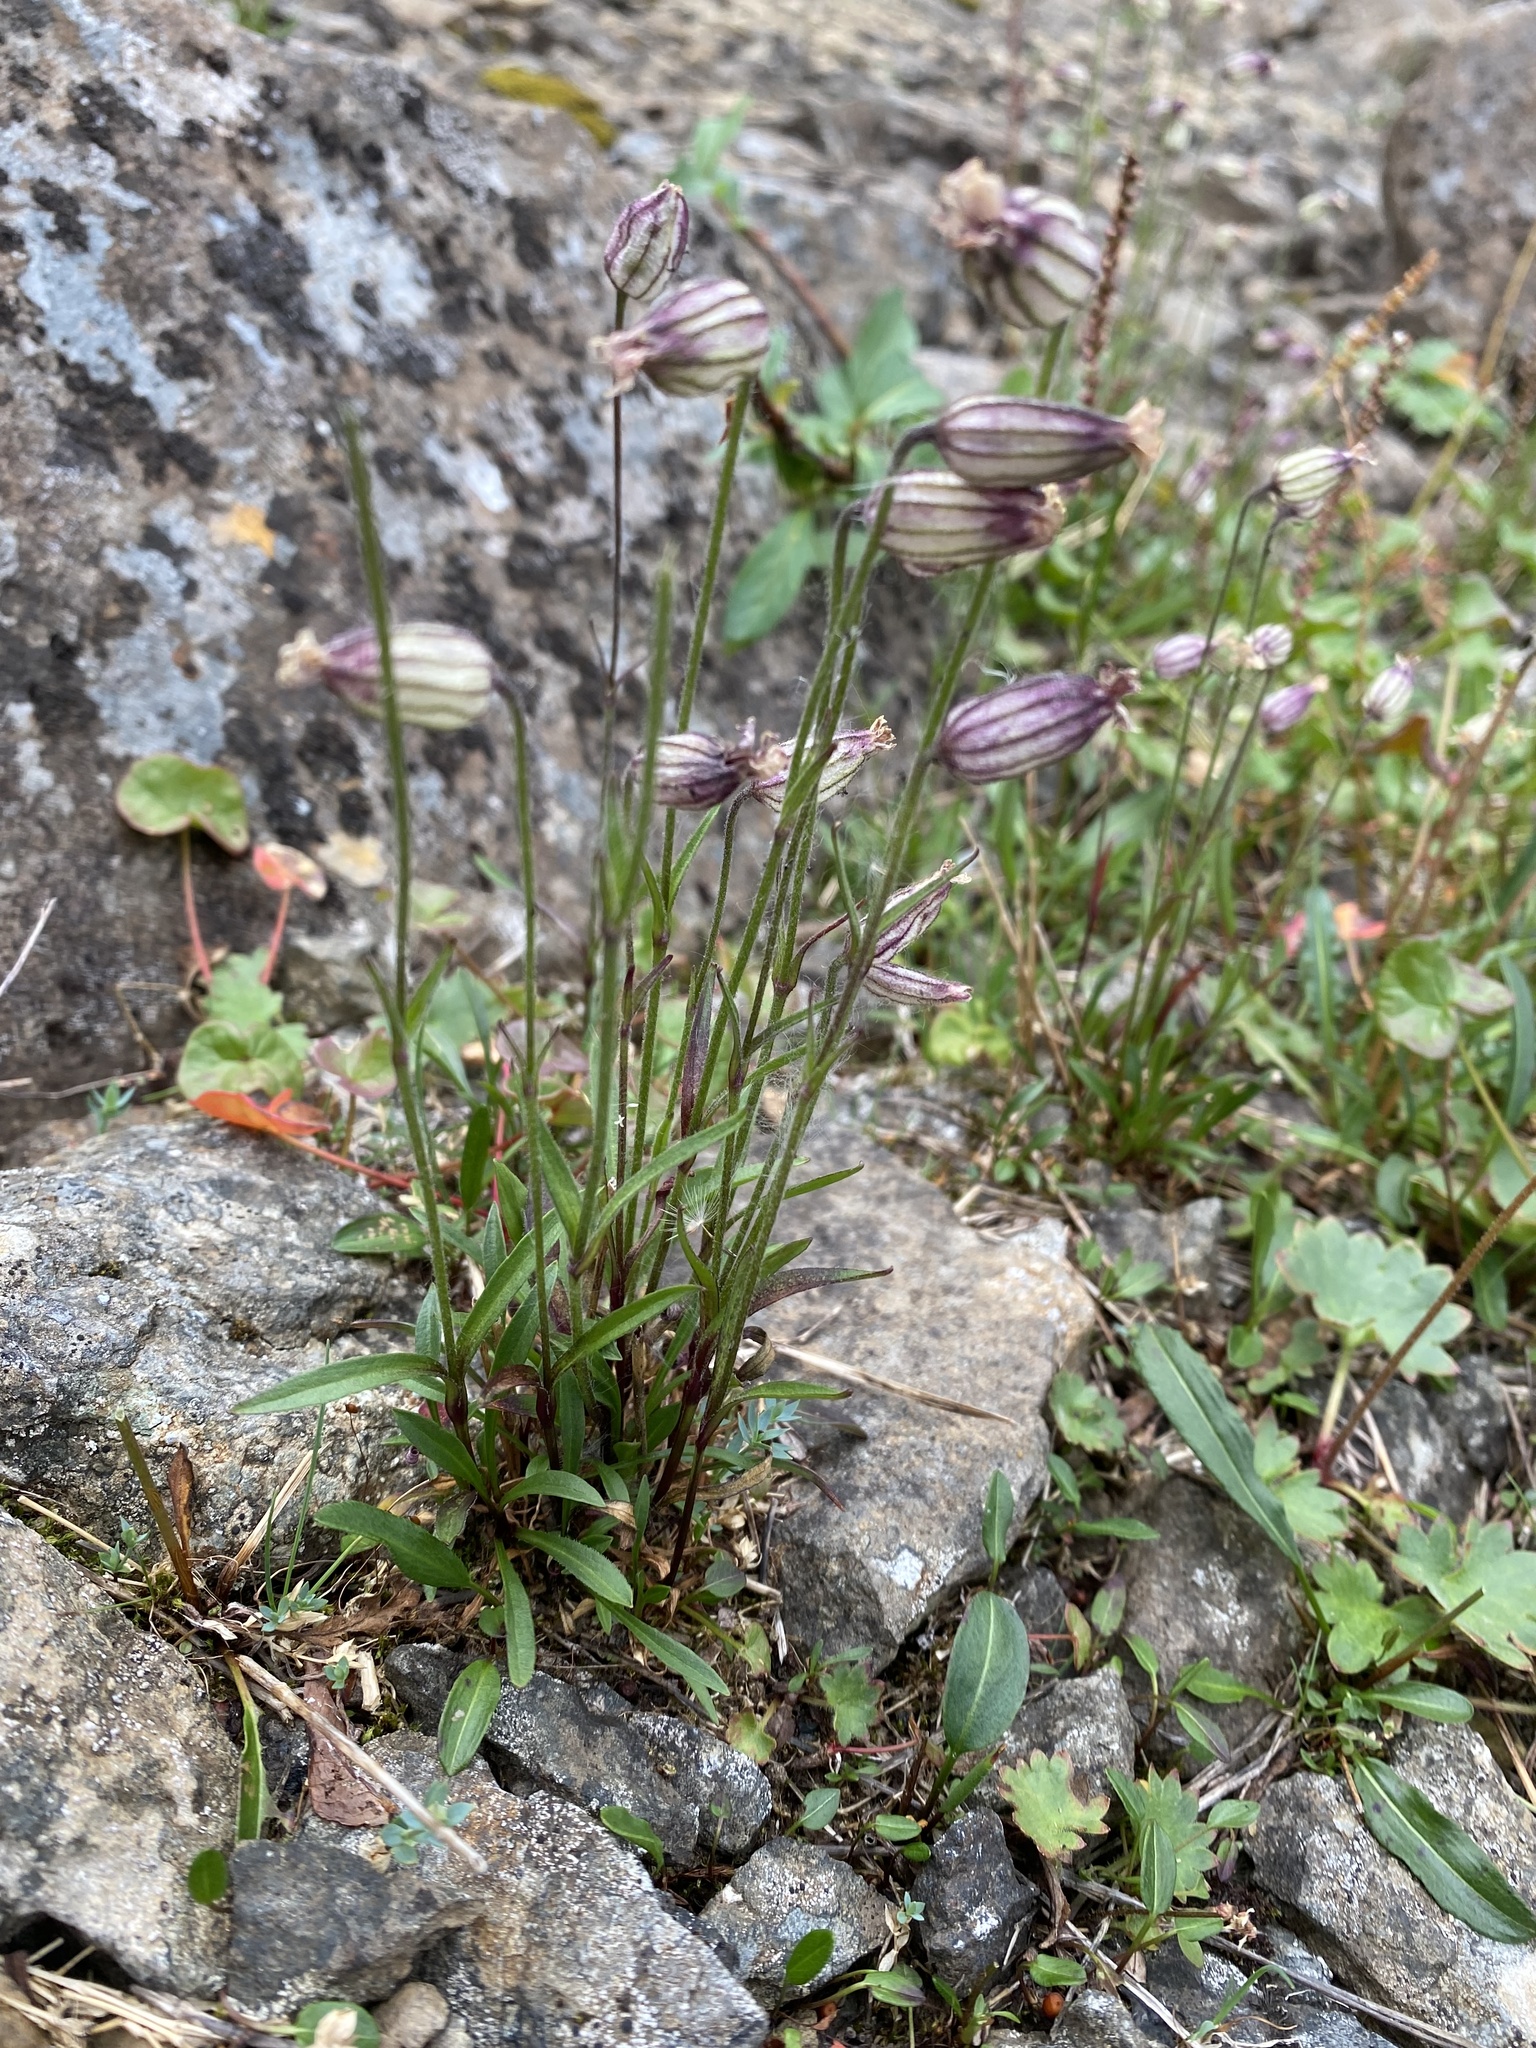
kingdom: Plantae
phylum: Tracheophyta
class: Magnoliopsida
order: Caryophyllales
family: Caryophyllaceae
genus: Silene
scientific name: Silene wahlbergella
